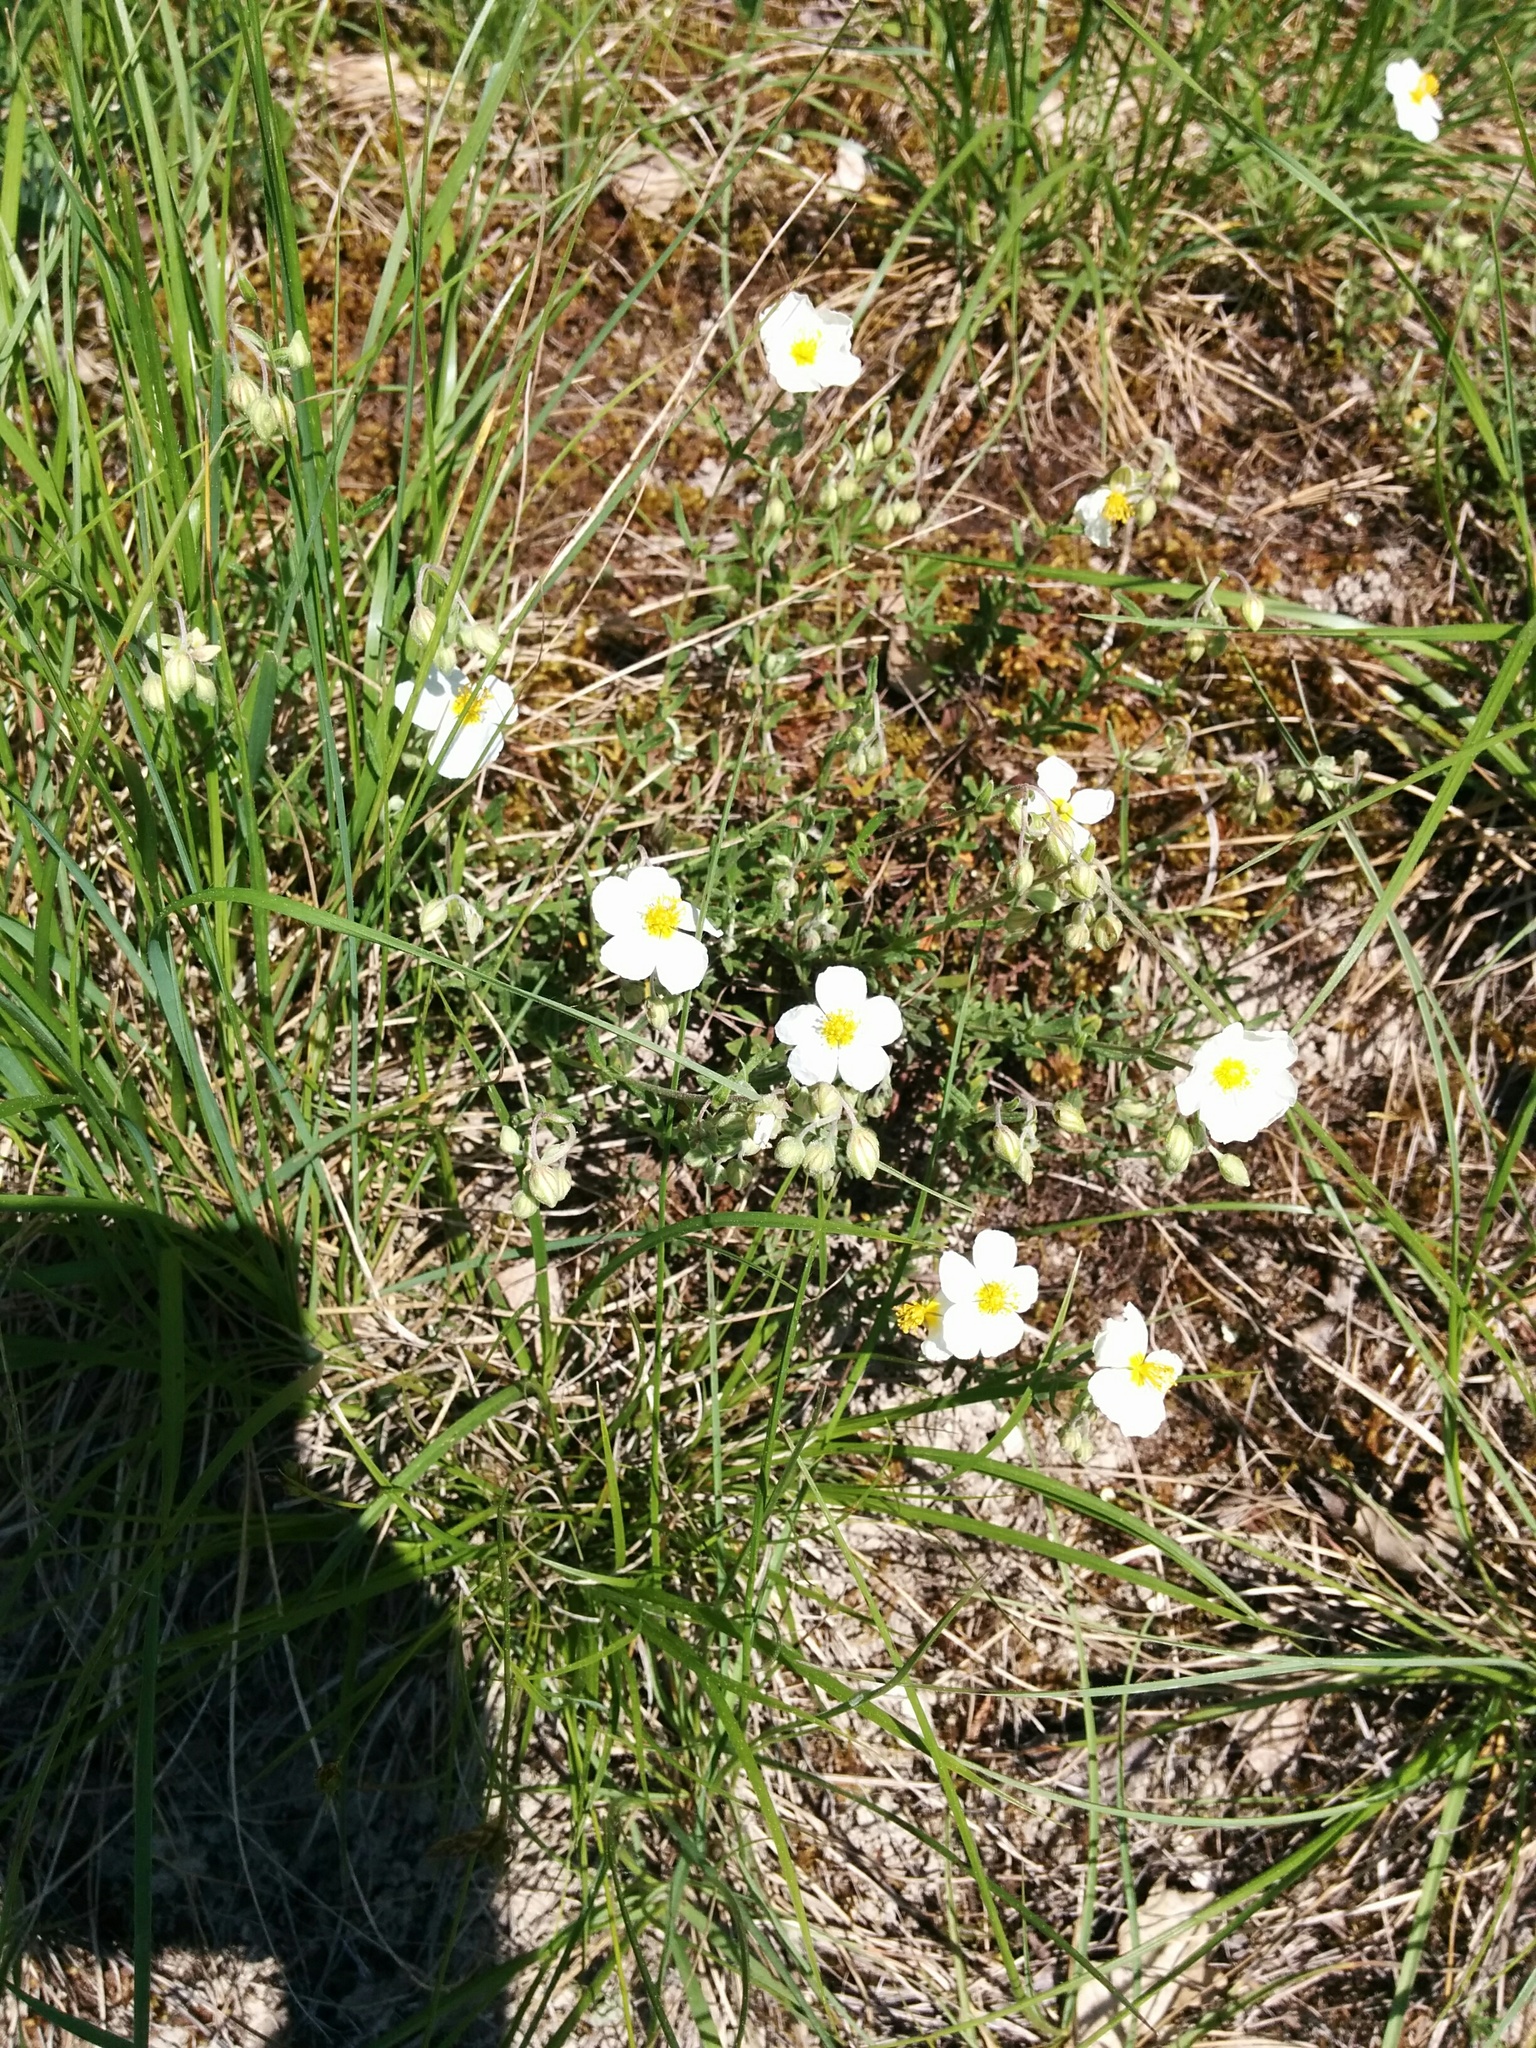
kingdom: Plantae
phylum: Tracheophyta
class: Magnoliopsida
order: Malvales
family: Cistaceae
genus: Helianthemum
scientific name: Helianthemum apenninum
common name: White rock-rose
